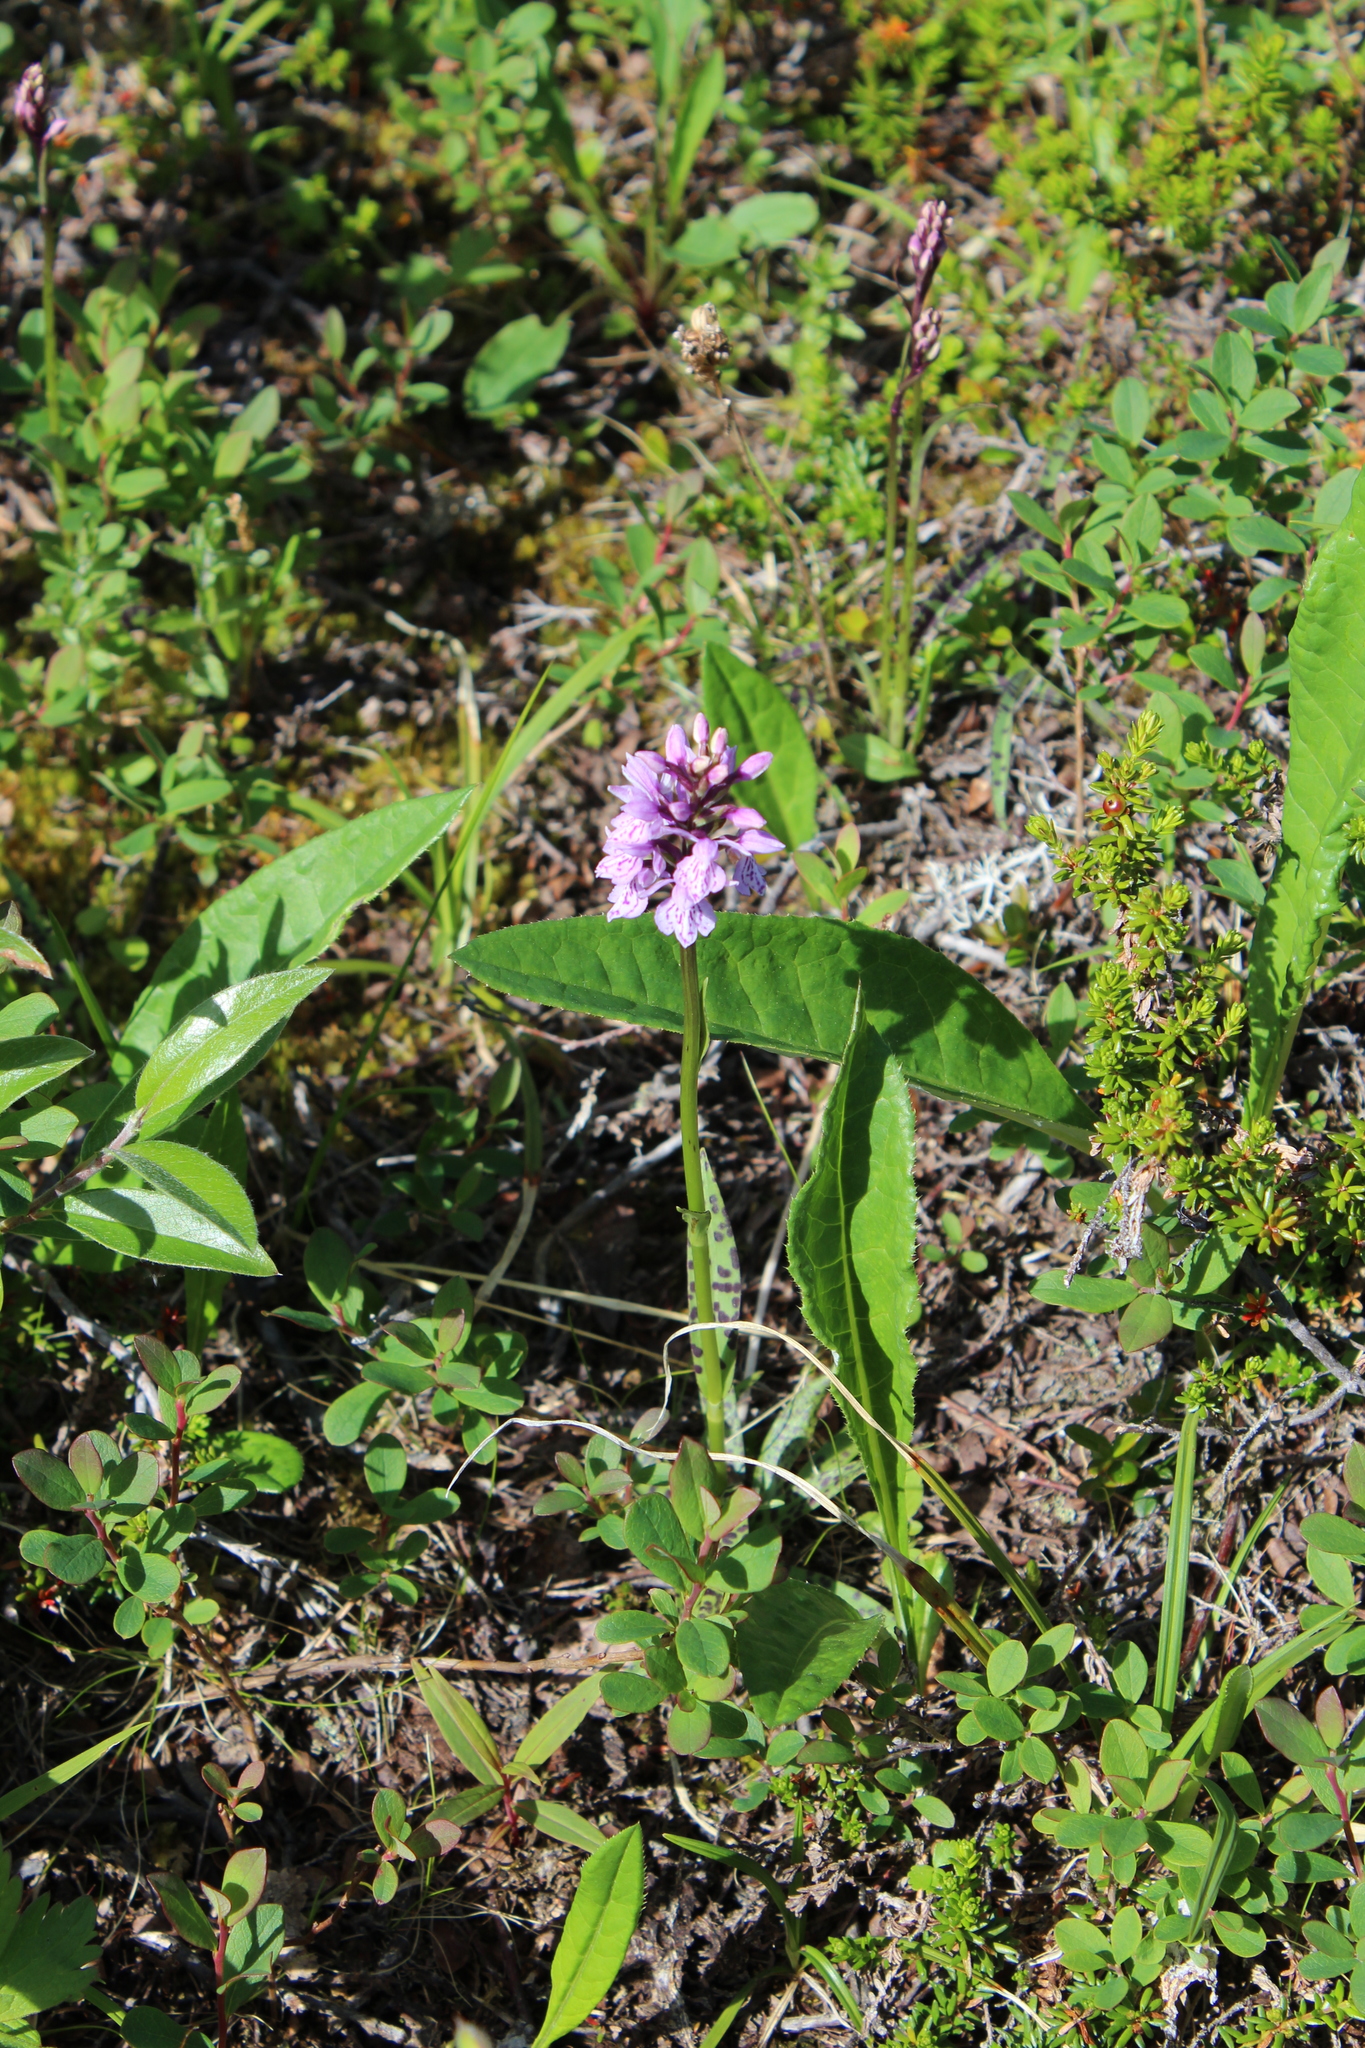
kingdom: Plantae
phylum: Tracheophyta
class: Liliopsida
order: Asparagales
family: Orchidaceae
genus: Dactylorhiza
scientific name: Dactylorhiza maculata
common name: Heath spotted-orchid
